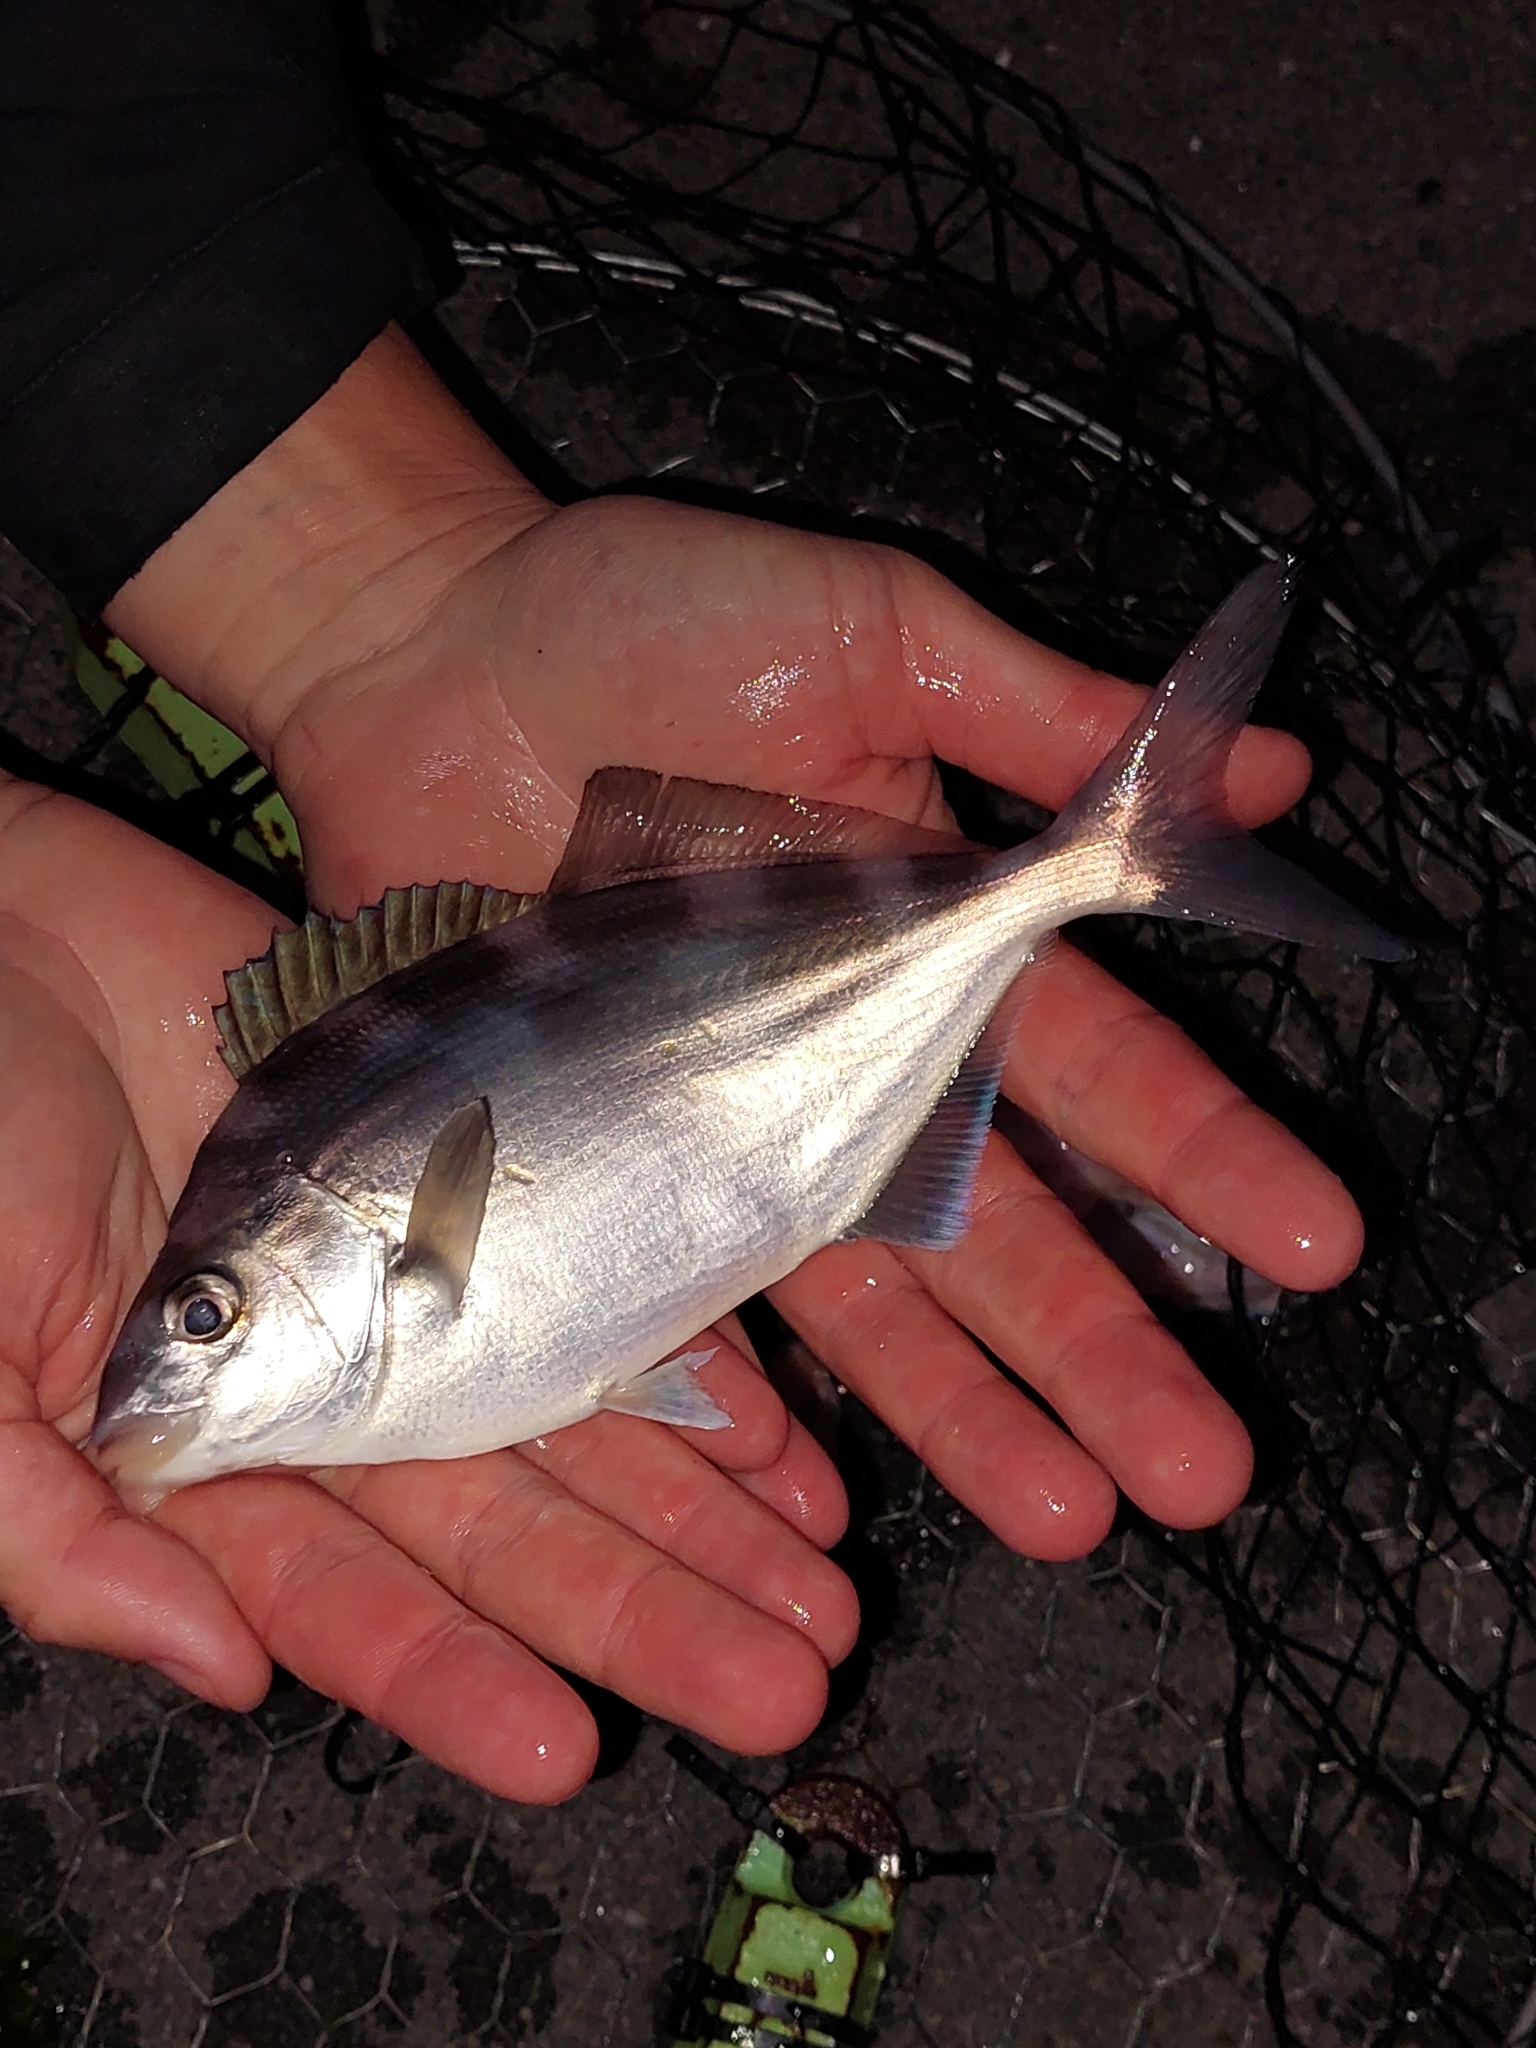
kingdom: Animalia
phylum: Chordata
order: Perciformes
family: Latridae
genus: Latridopsis
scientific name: Latridopsis ciliaris
